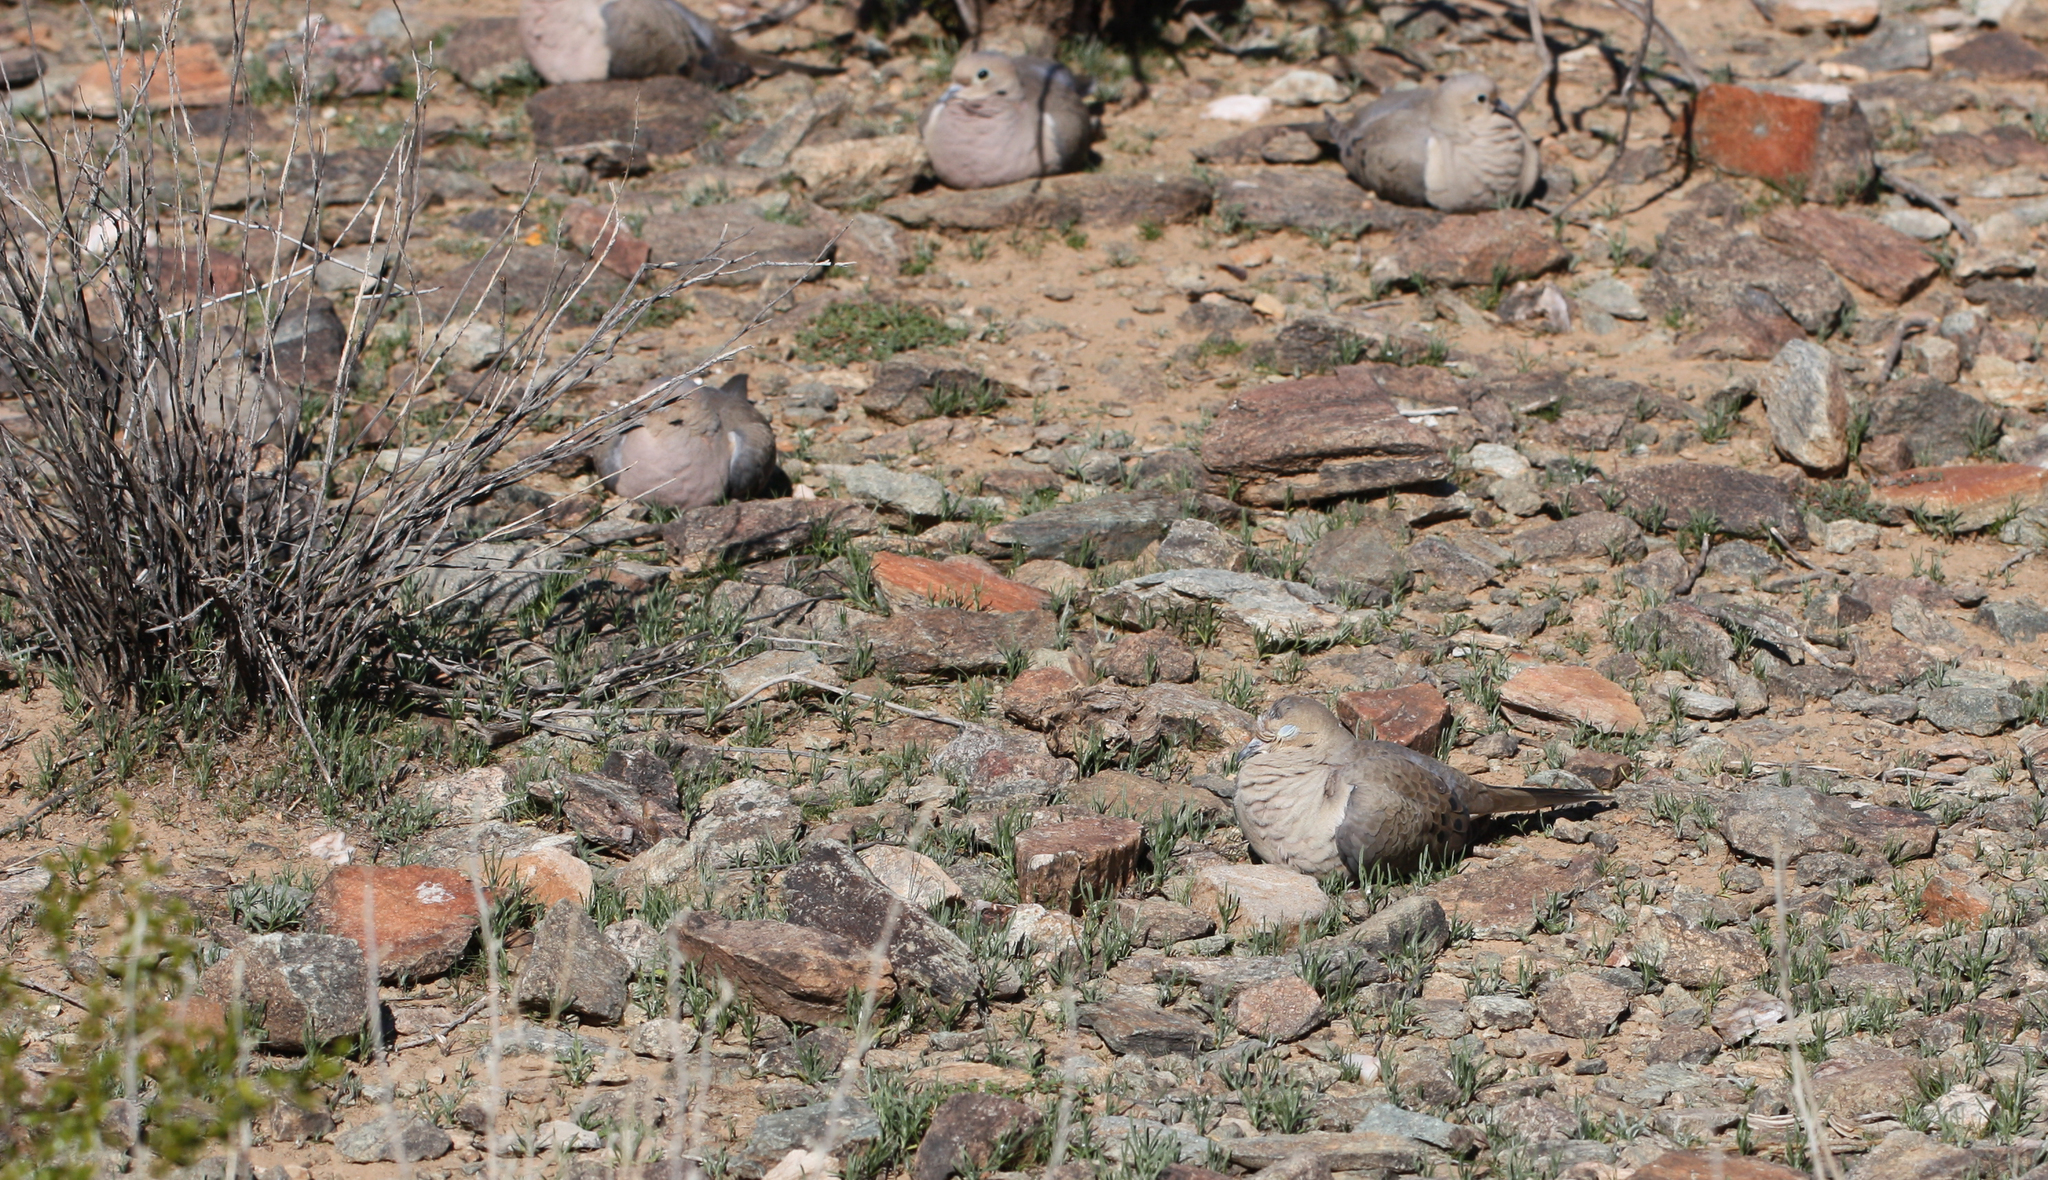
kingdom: Animalia
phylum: Chordata
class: Aves
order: Columbiformes
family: Columbidae
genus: Zenaida
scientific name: Zenaida macroura
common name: Mourning dove
